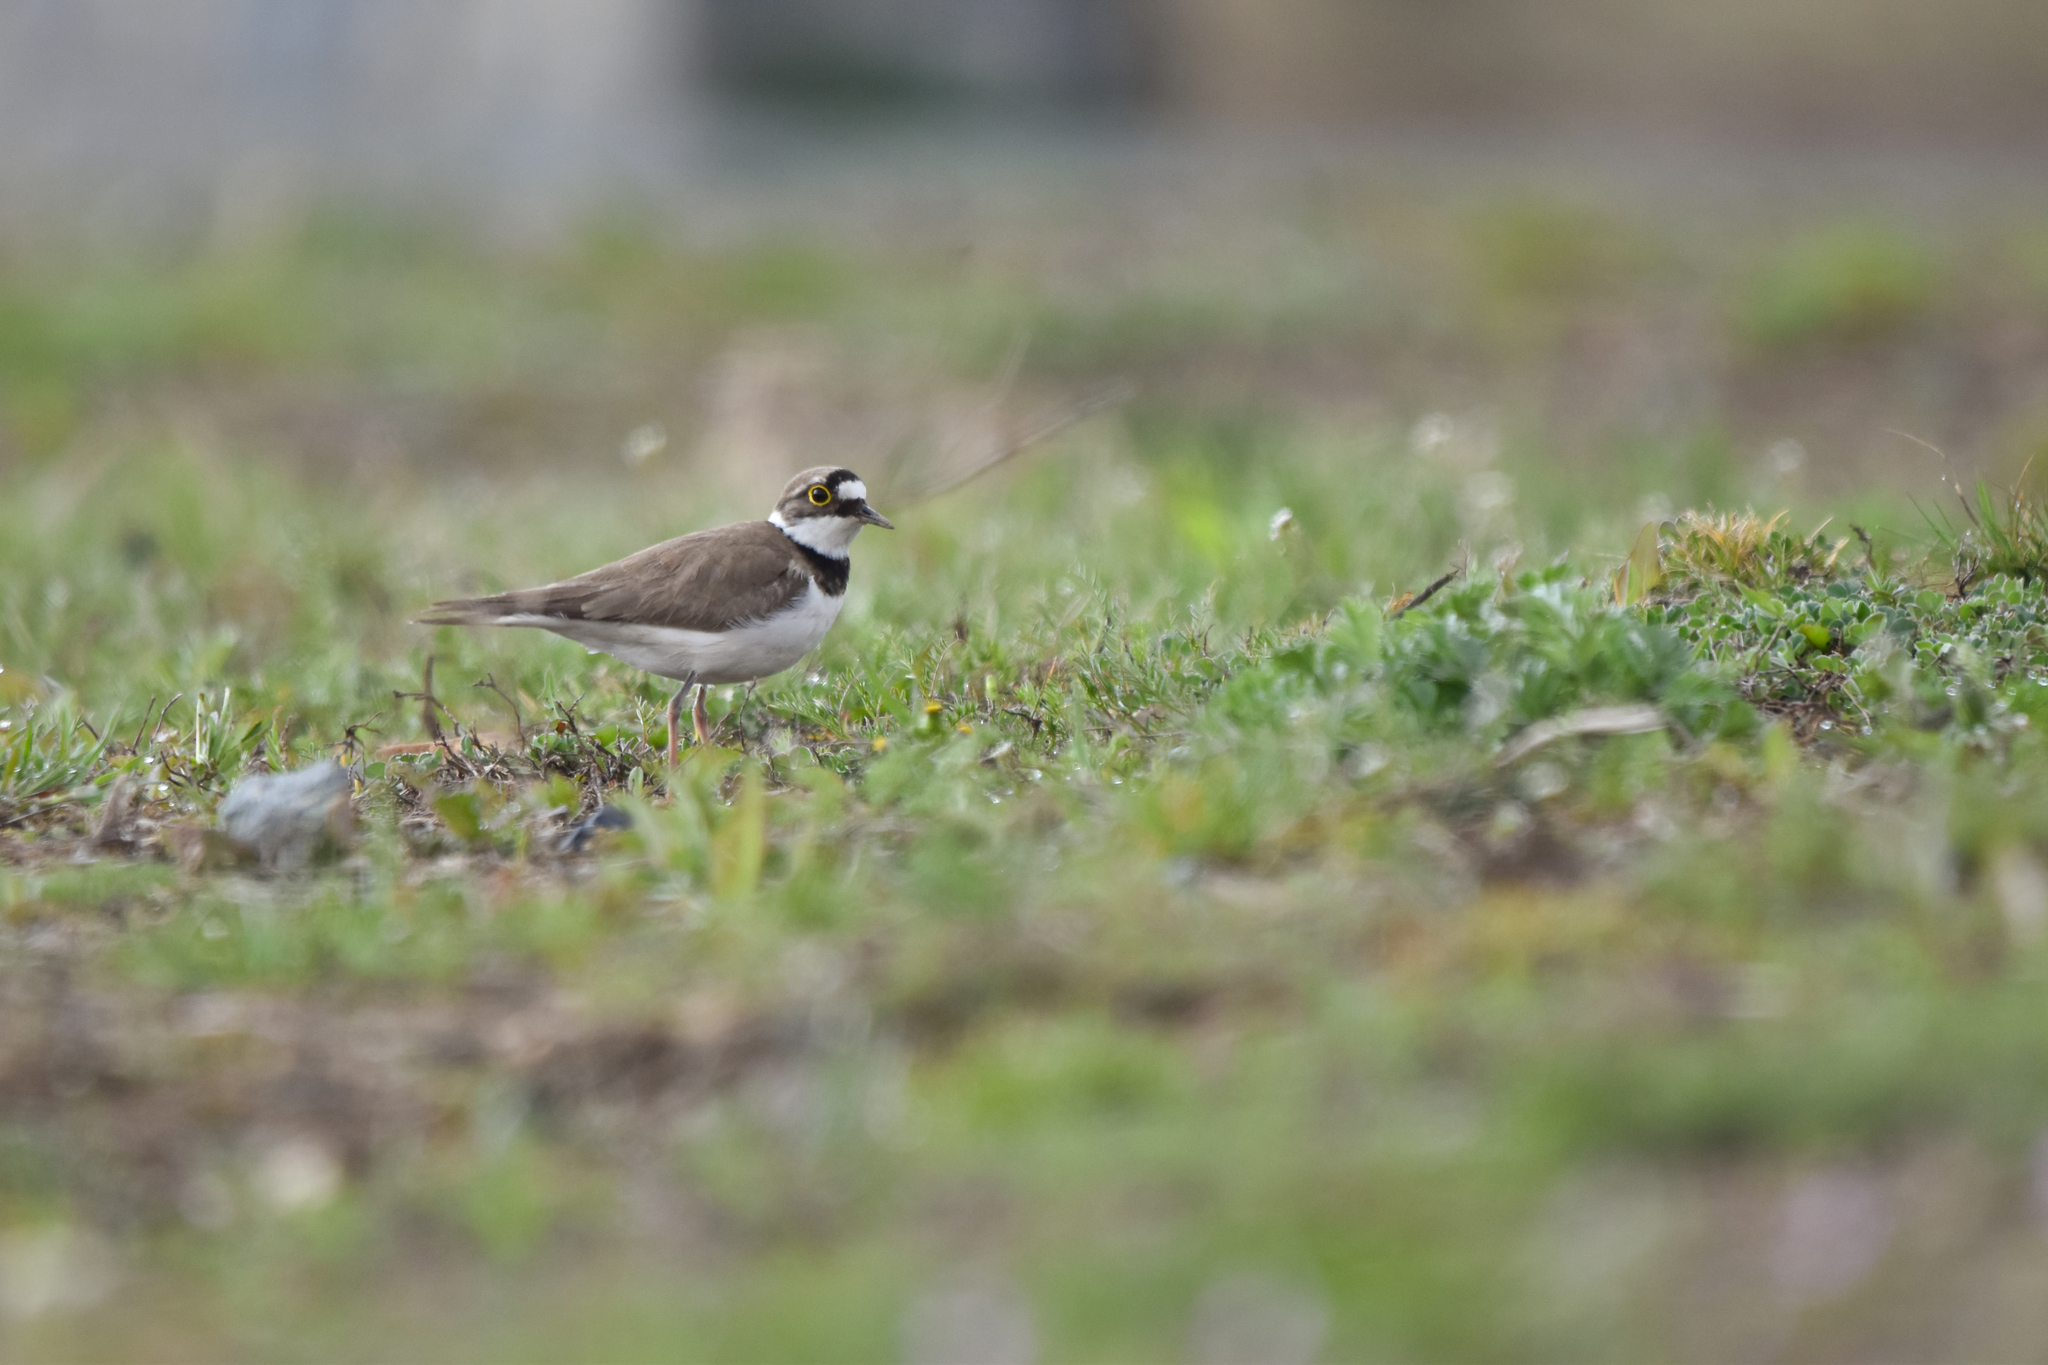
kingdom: Animalia
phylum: Chordata
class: Aves
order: Charadriiformes
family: Charadriidae
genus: Charadrius
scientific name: Charadrius dubius
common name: Little ringed plover
